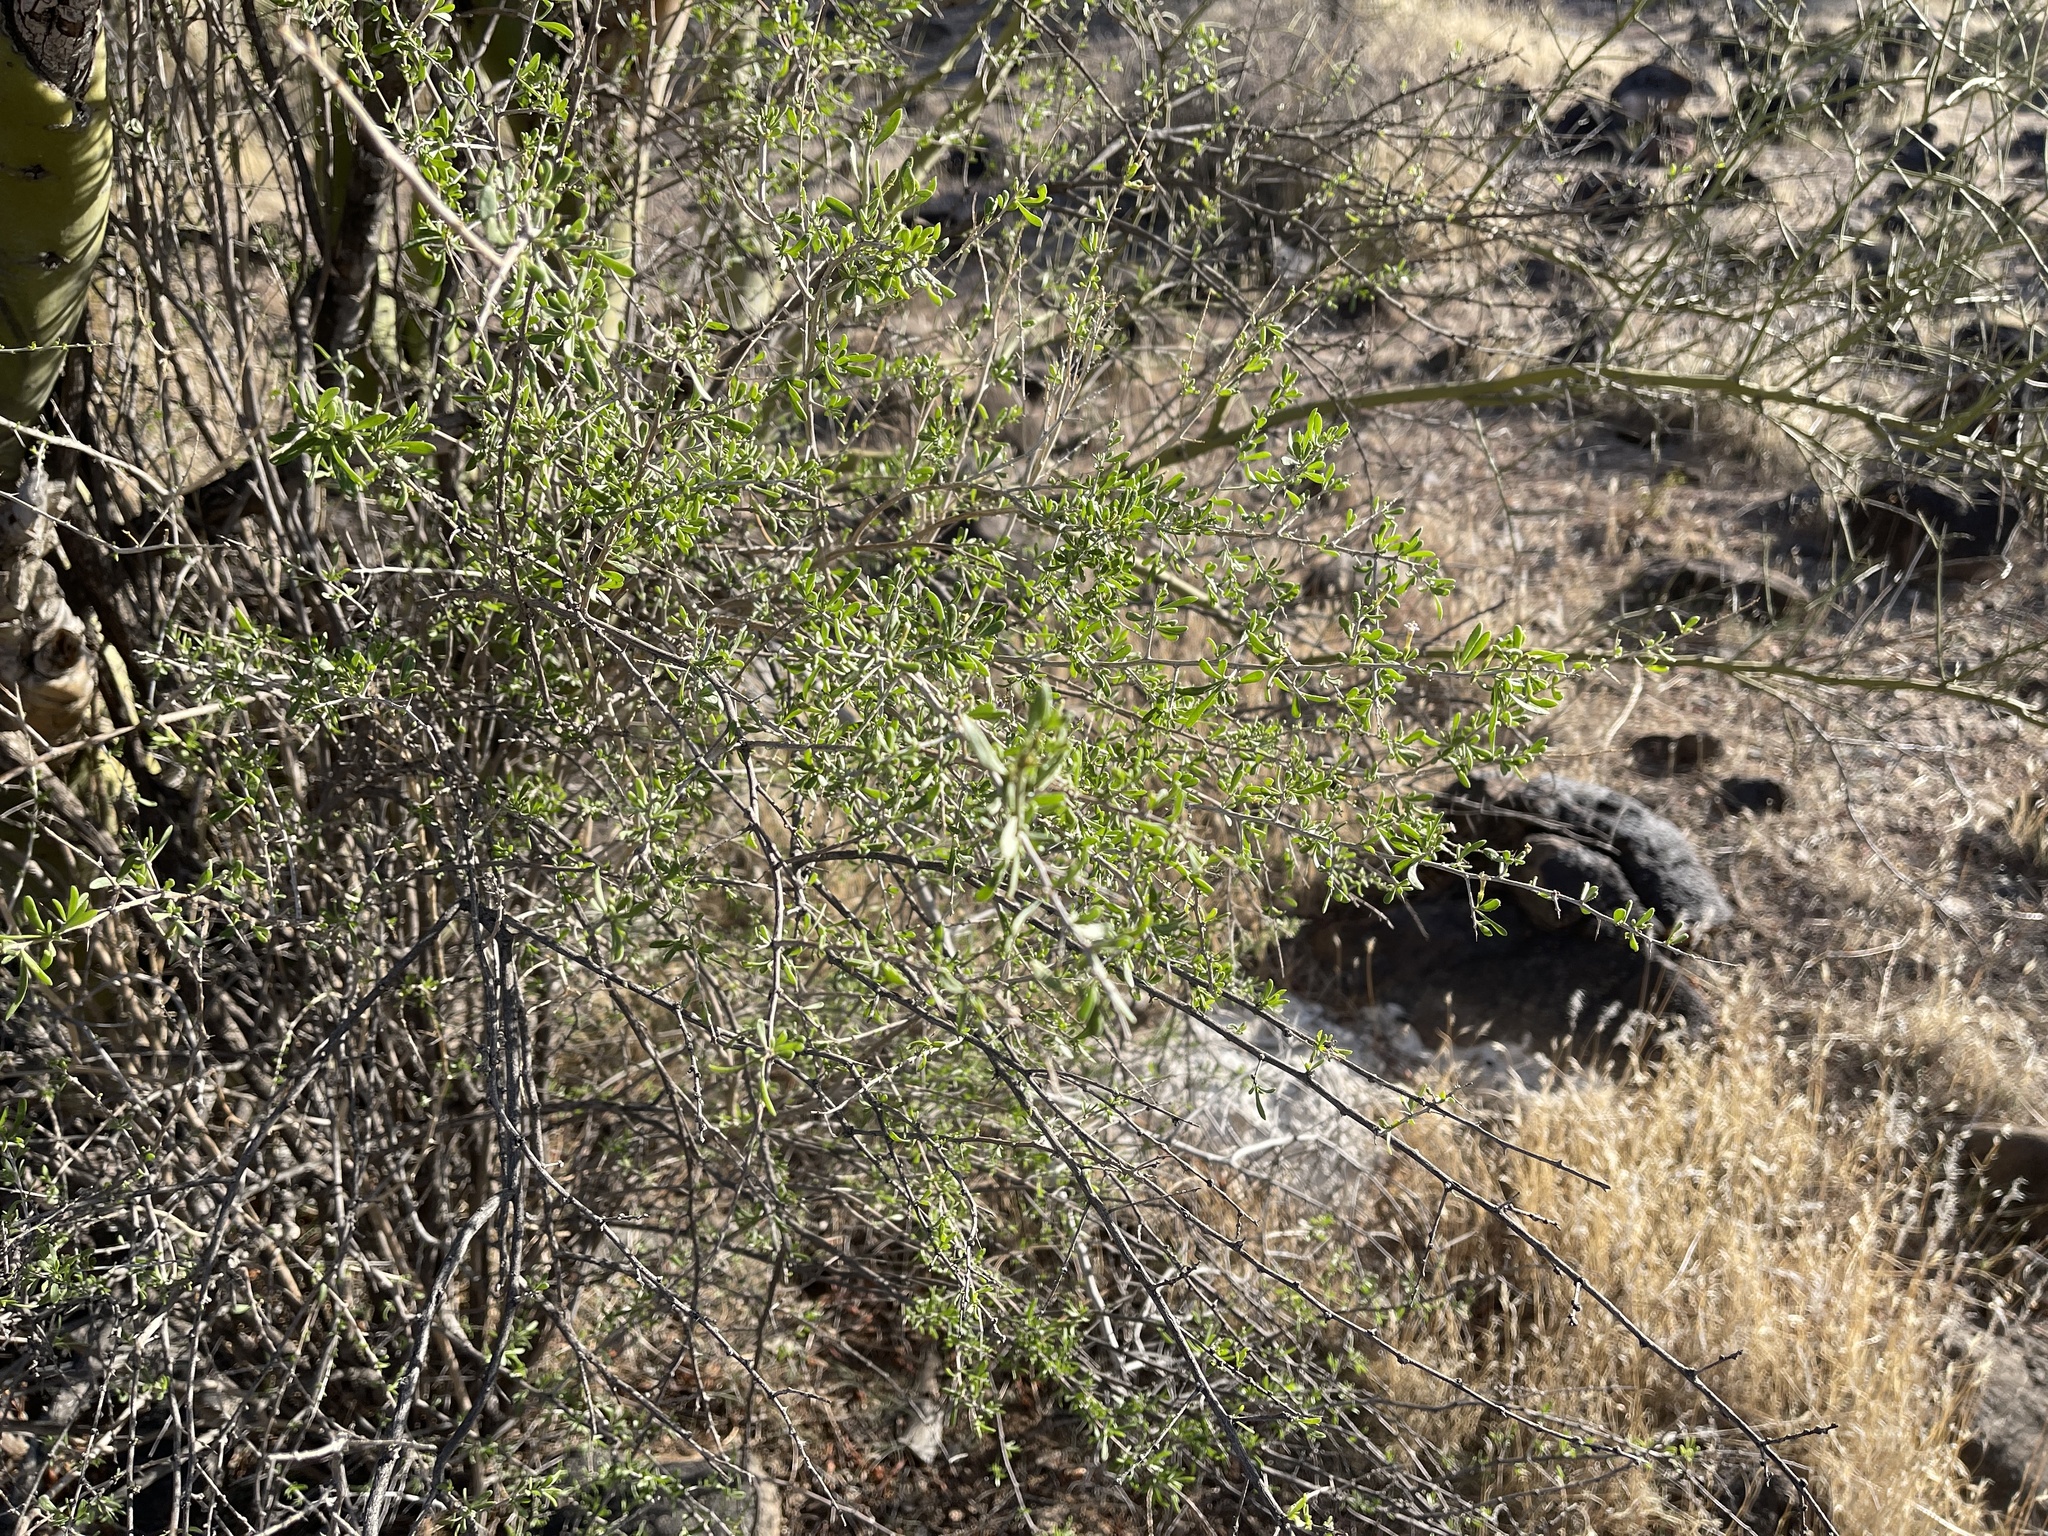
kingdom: Plantae
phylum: Tracheophyta
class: Magnoliopsida
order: Solanales
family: Solanaceae
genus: Lycium
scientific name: Lycium andersonii
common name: Water-jacket
